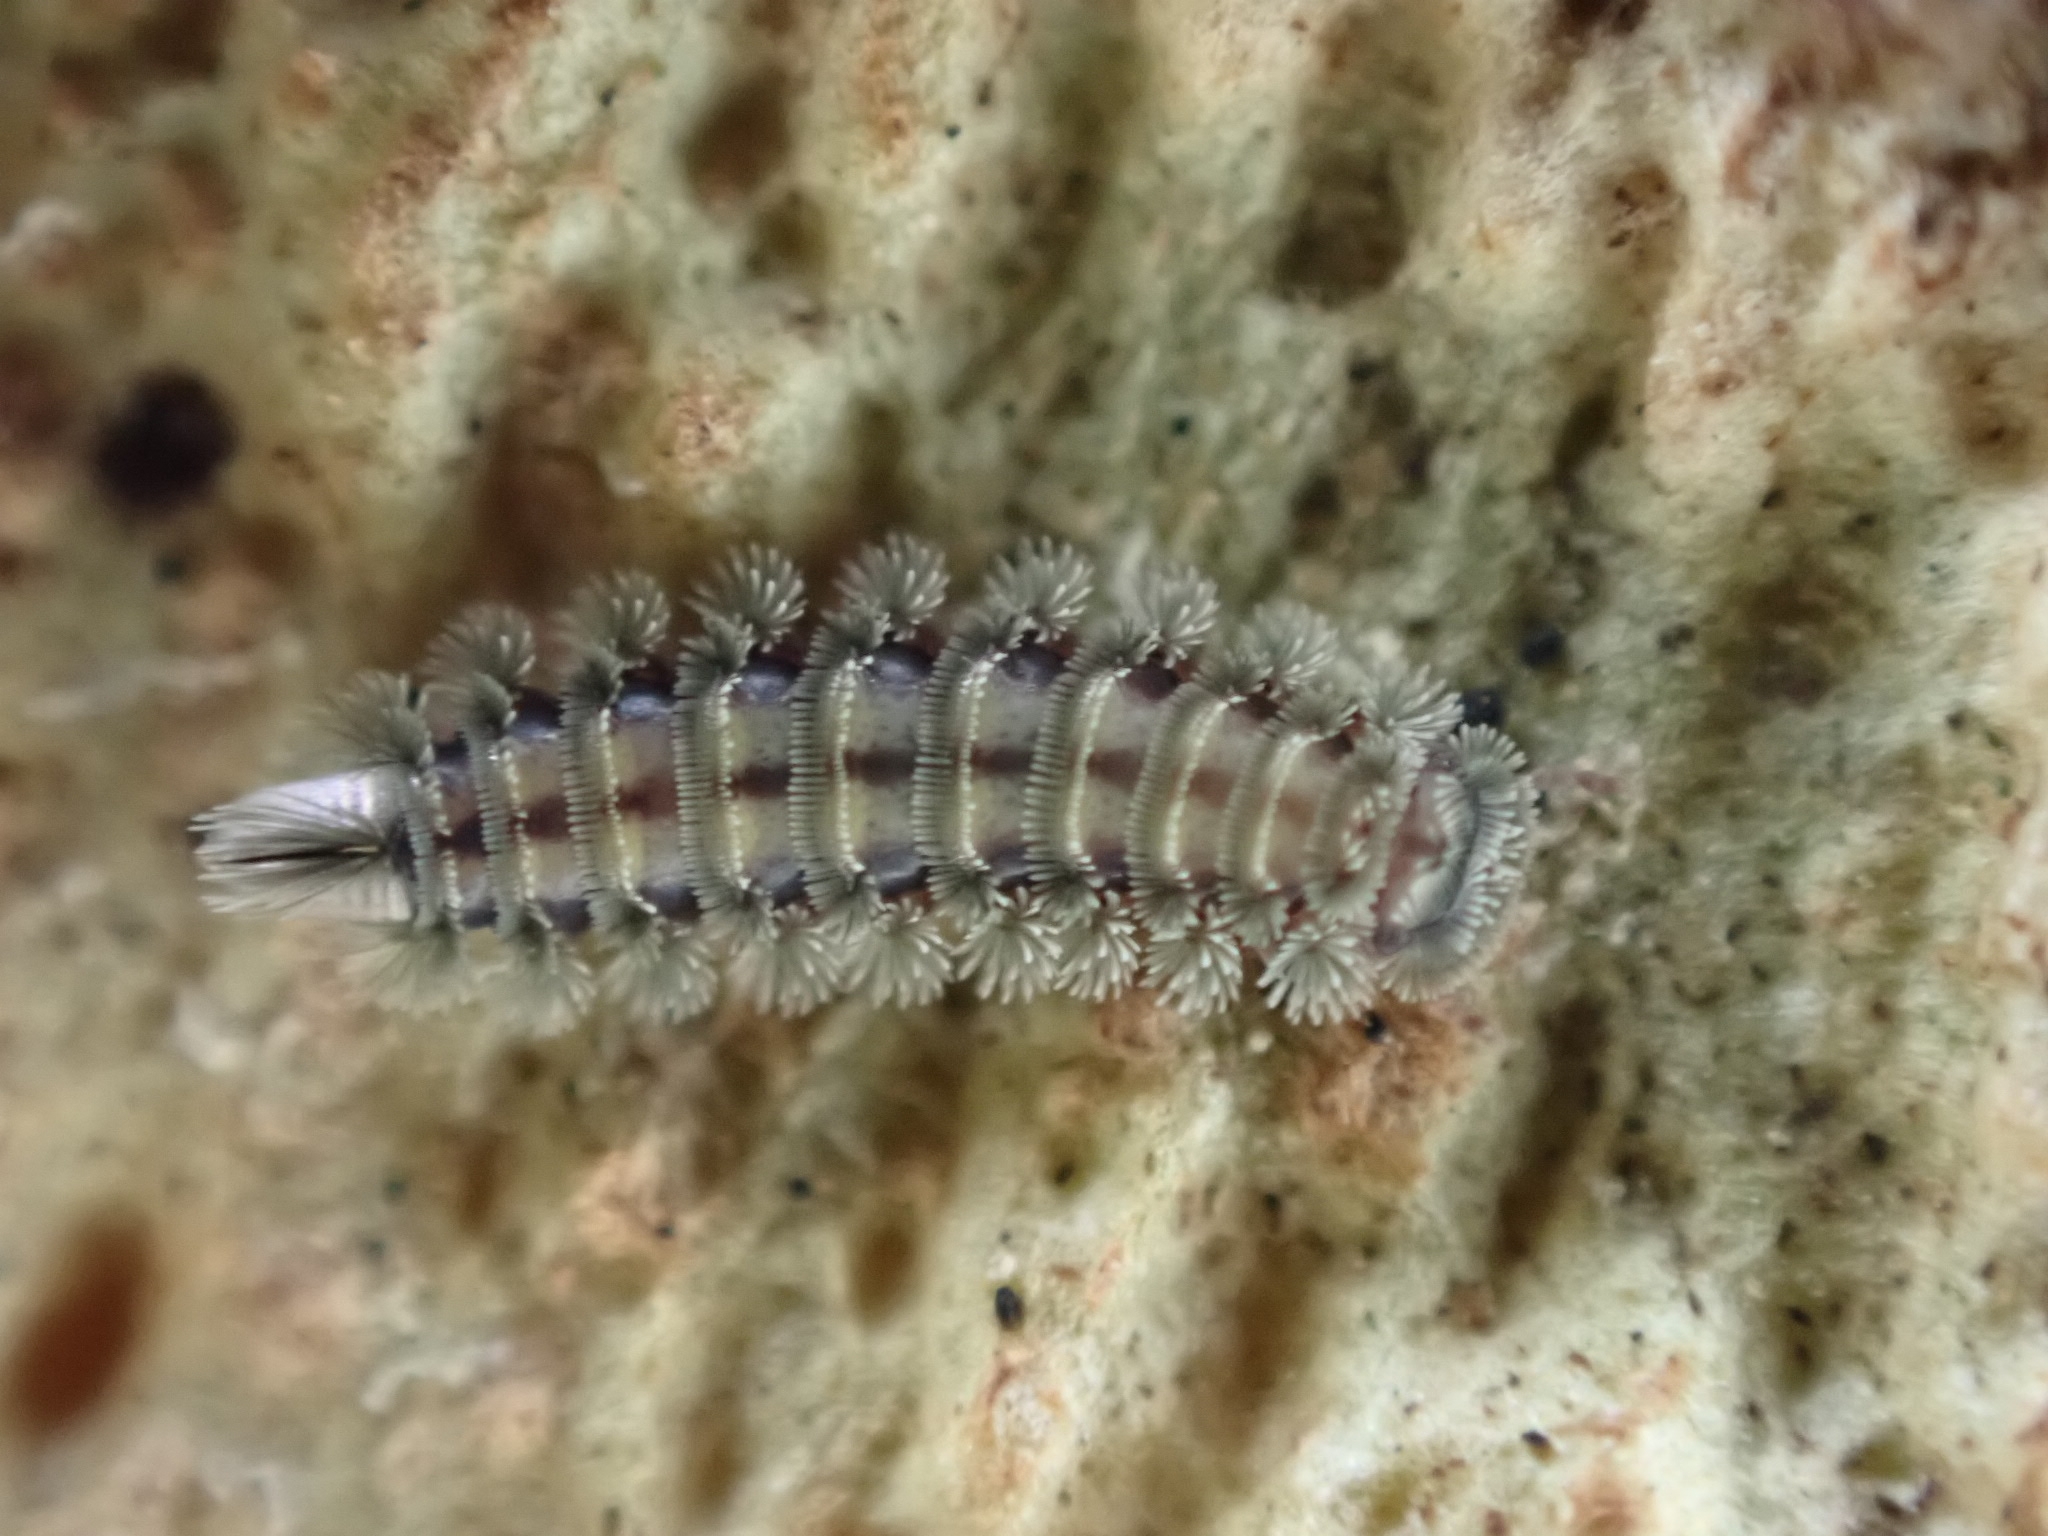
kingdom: Animalia
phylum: Arthropoda
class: Diplopoda
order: Polyxenida
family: Polyxenidae
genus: Polyxenus
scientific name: Polyxenus lagurus
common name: Bristly millipede
